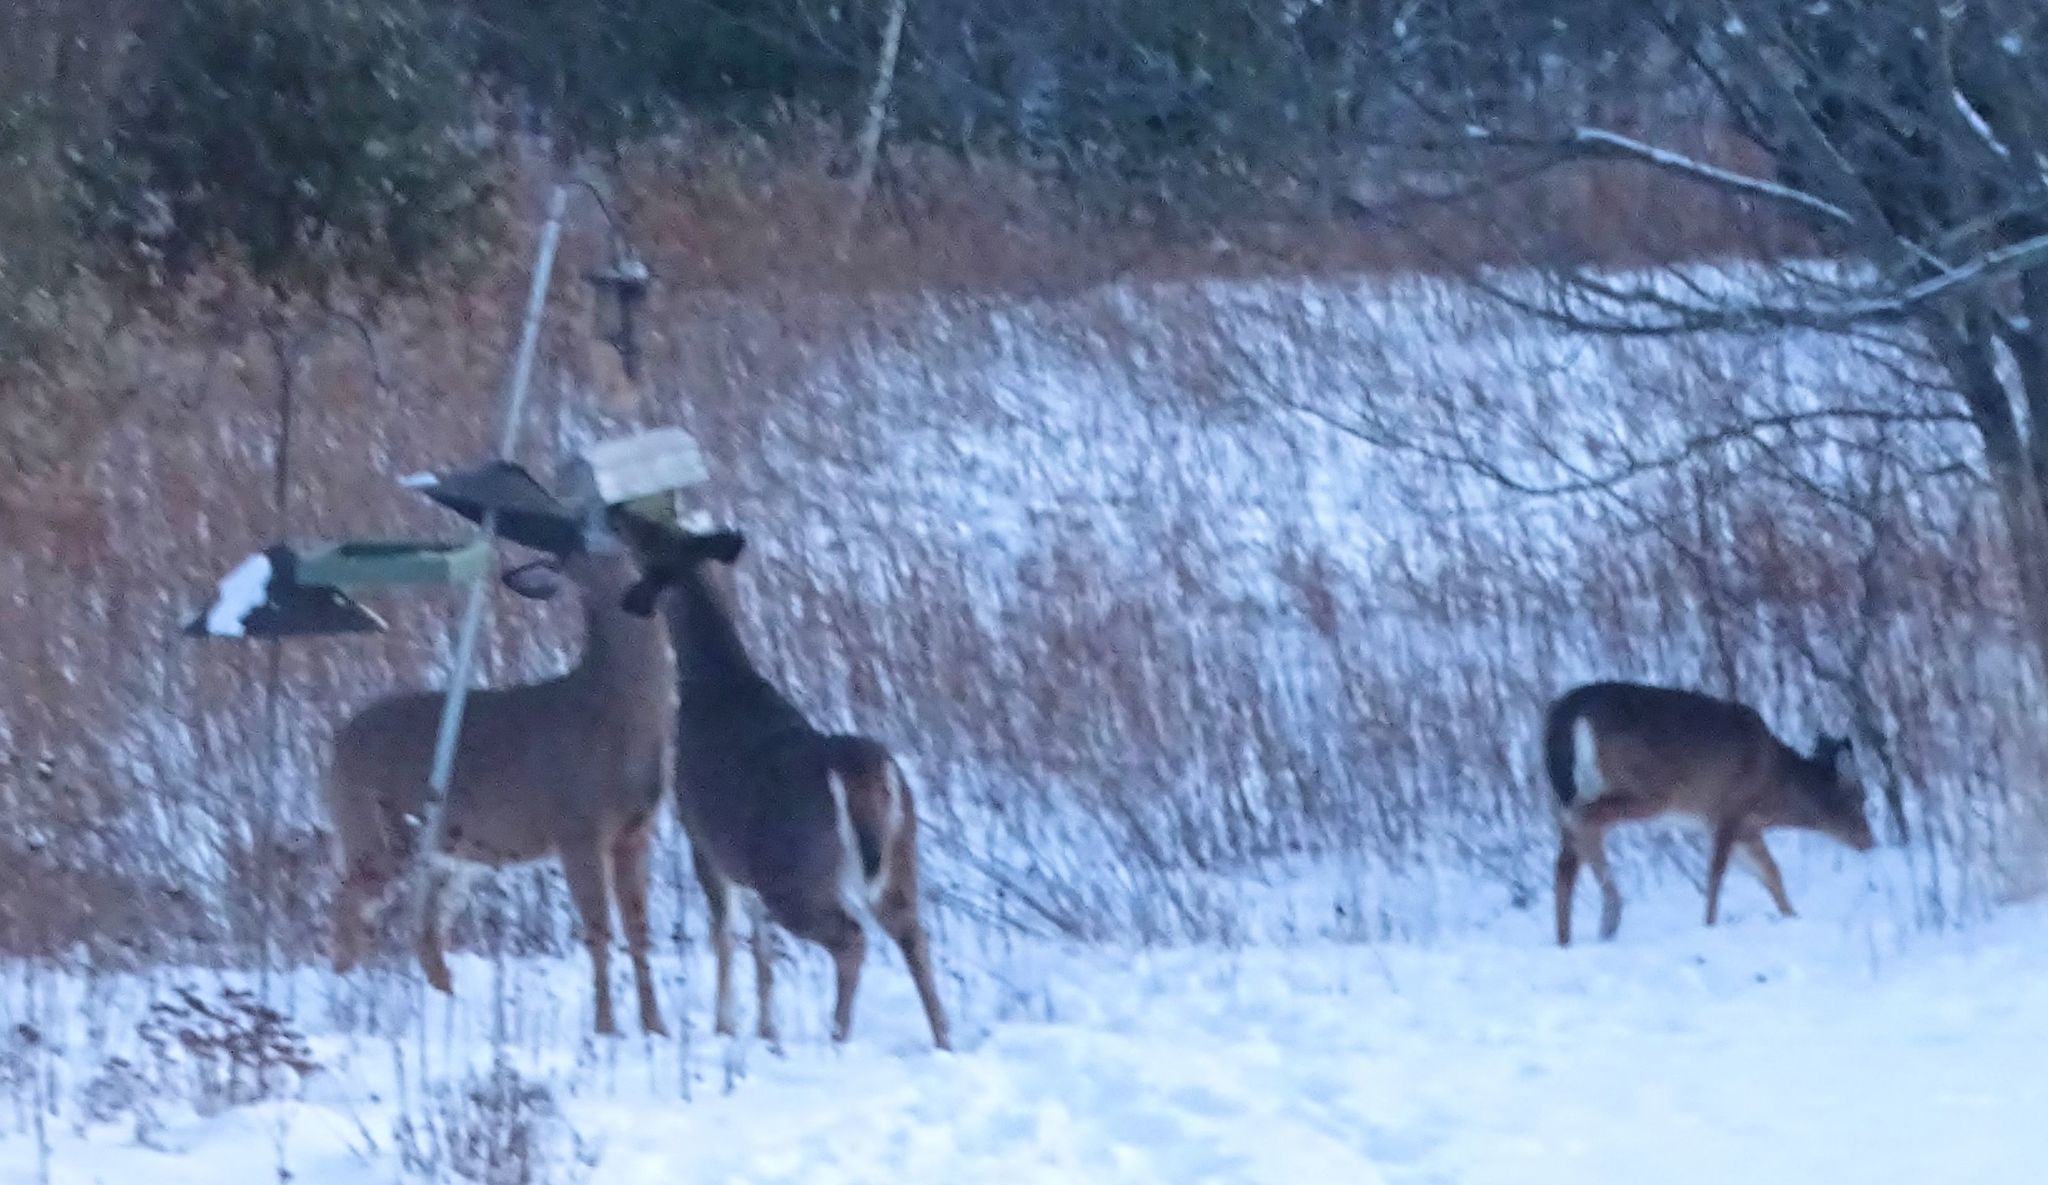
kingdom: Animalia
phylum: Chordata
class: Mammalia
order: Artiodactyla
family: Cervidae
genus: Odocoileus
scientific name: Odocoileus virginianus
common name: White-tailed deer
